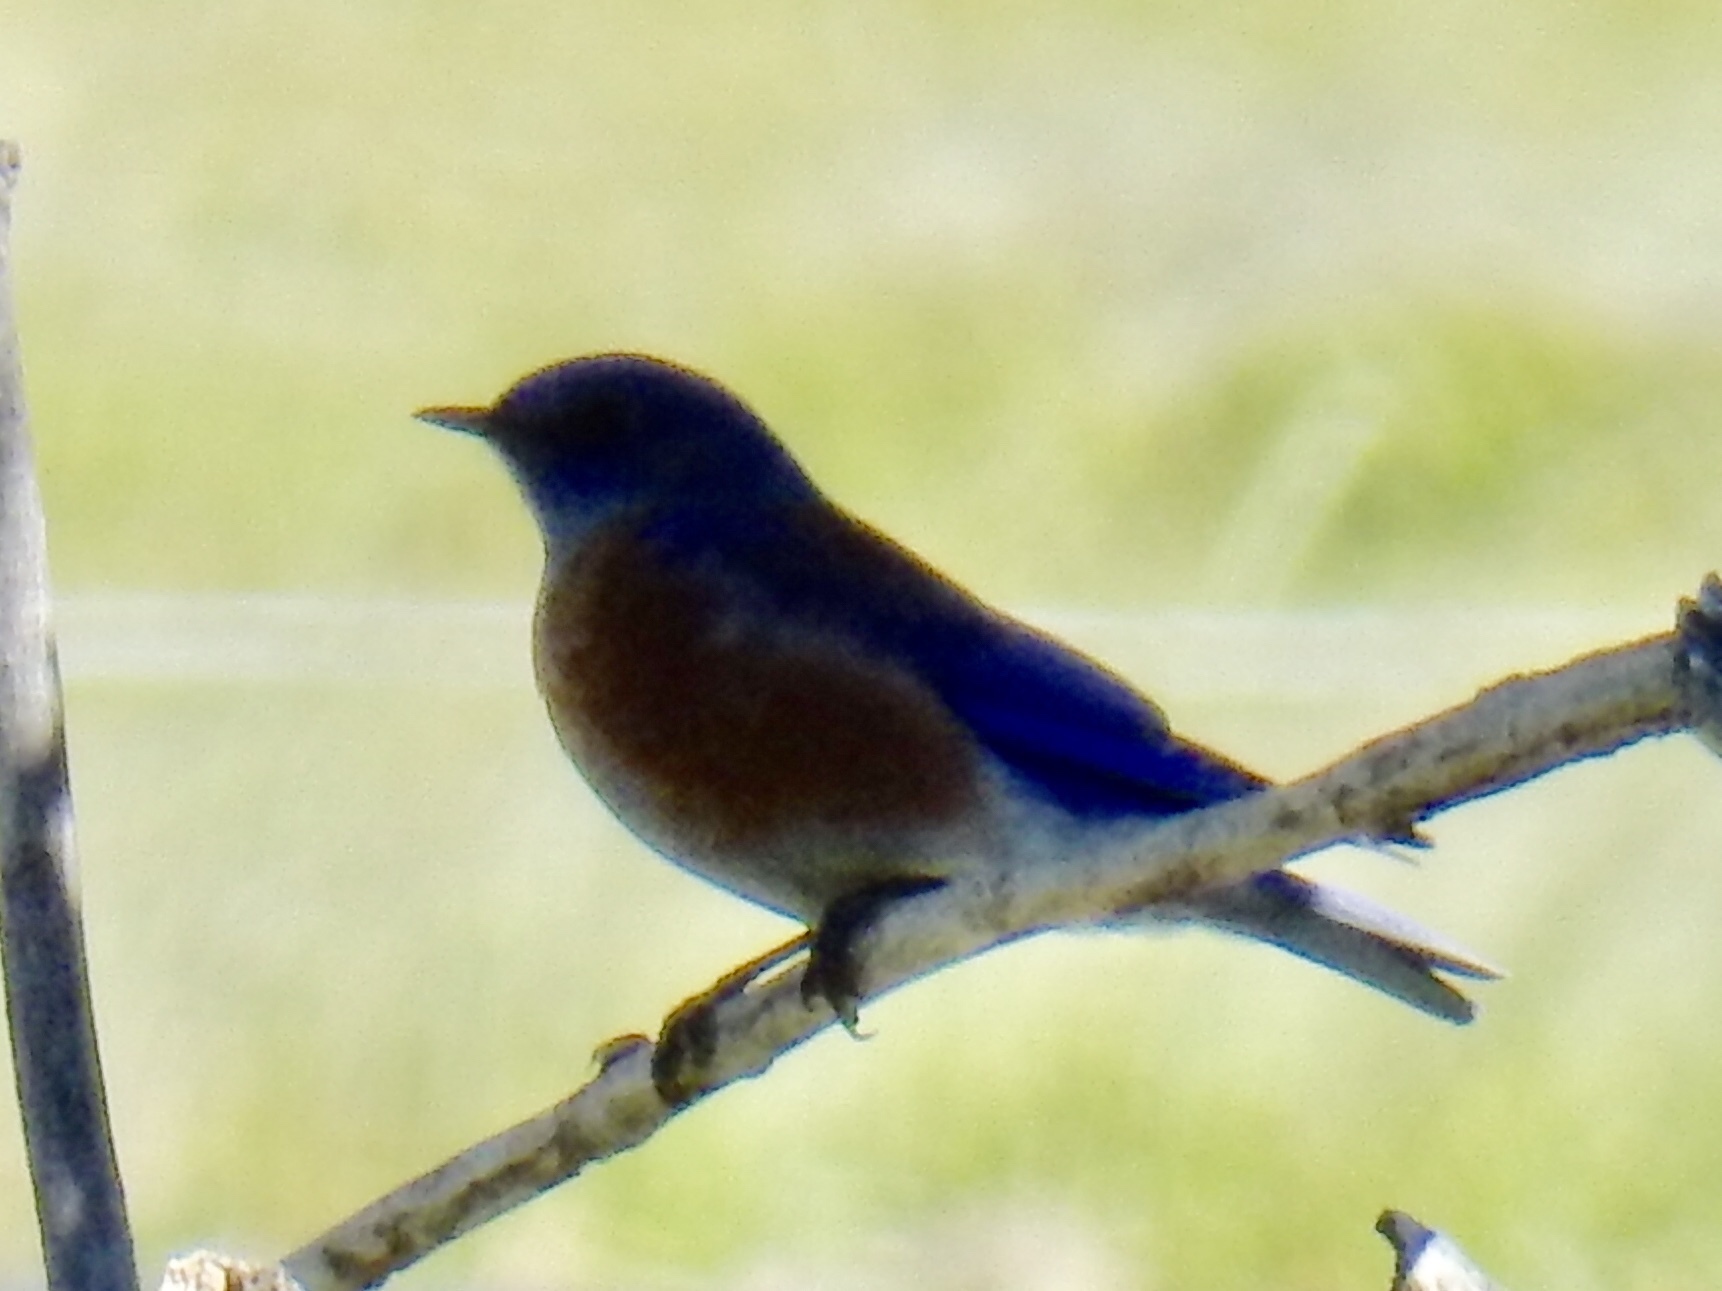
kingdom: Animalia
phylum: Chordata
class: Aves
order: Passeriformes
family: Turdidae
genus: Sialia
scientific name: Sialia mexicana
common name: Western bluebird
